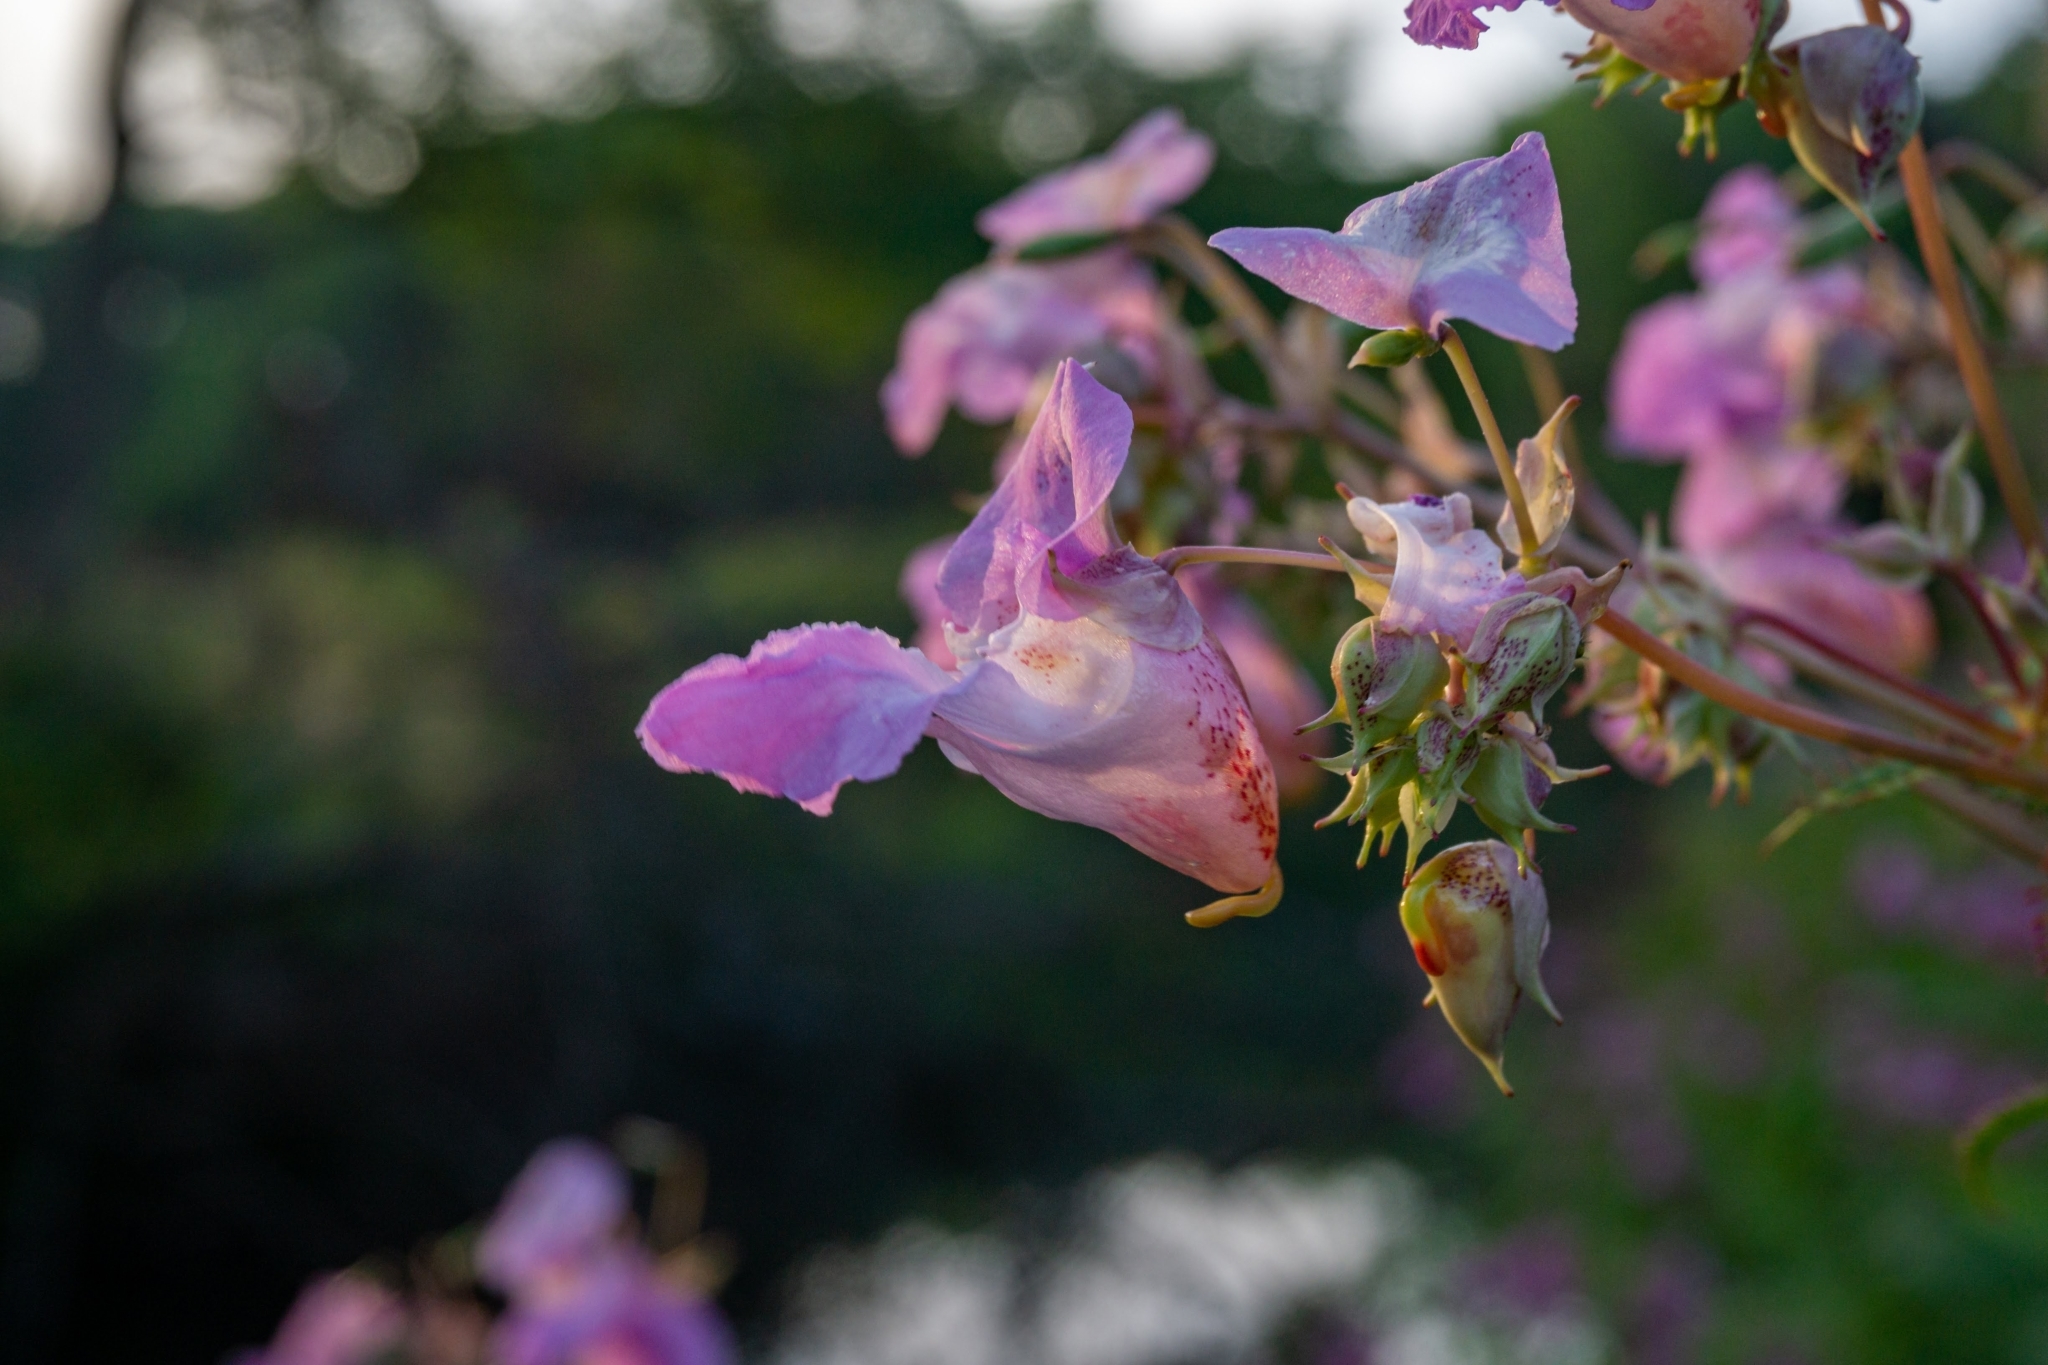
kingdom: Plantae
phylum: Tracheophyta
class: Magnoliopsida
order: Ericales
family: Balsaminaceae
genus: Impatiens
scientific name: Impatiens glandulifera
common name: Himalayan balsam
